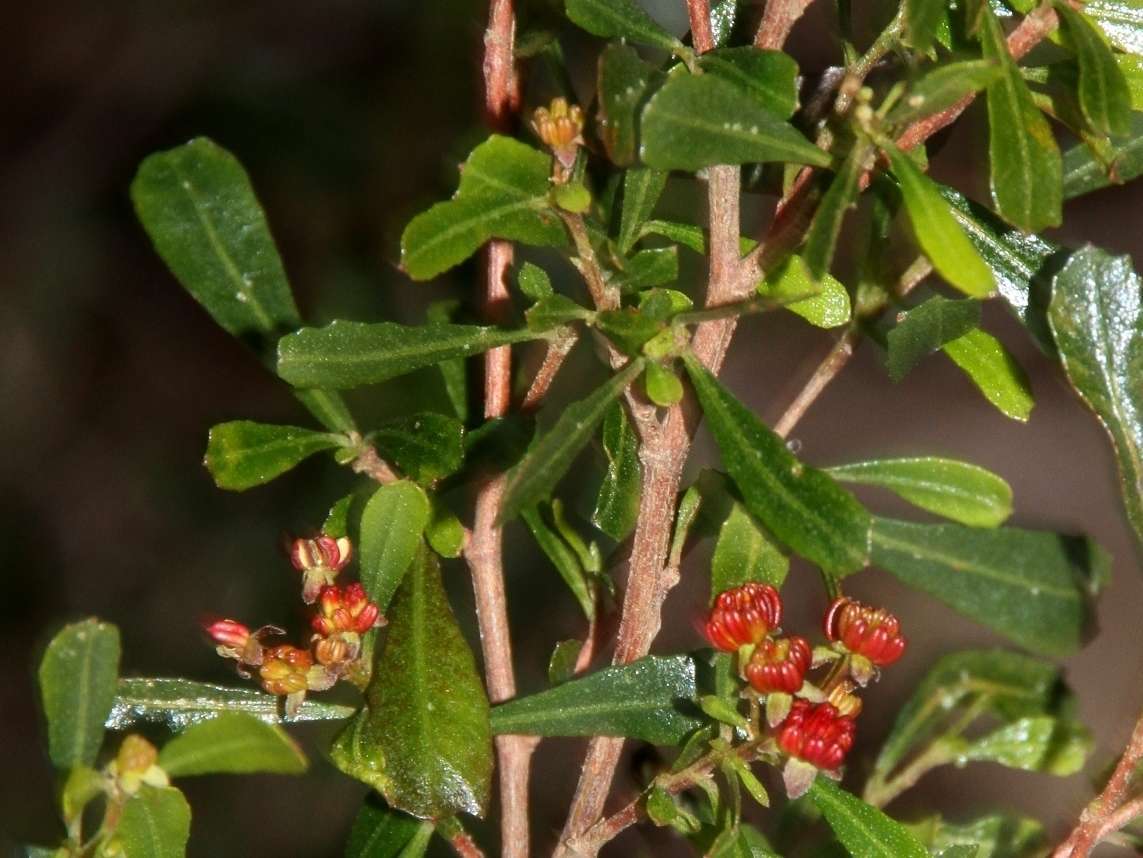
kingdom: Plantae
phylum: Tracheophyta
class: Magnoliopsida
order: Sapindales
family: Sapindaceae
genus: Dodonaea
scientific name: Dodonaea viscosa
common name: Hopbush
